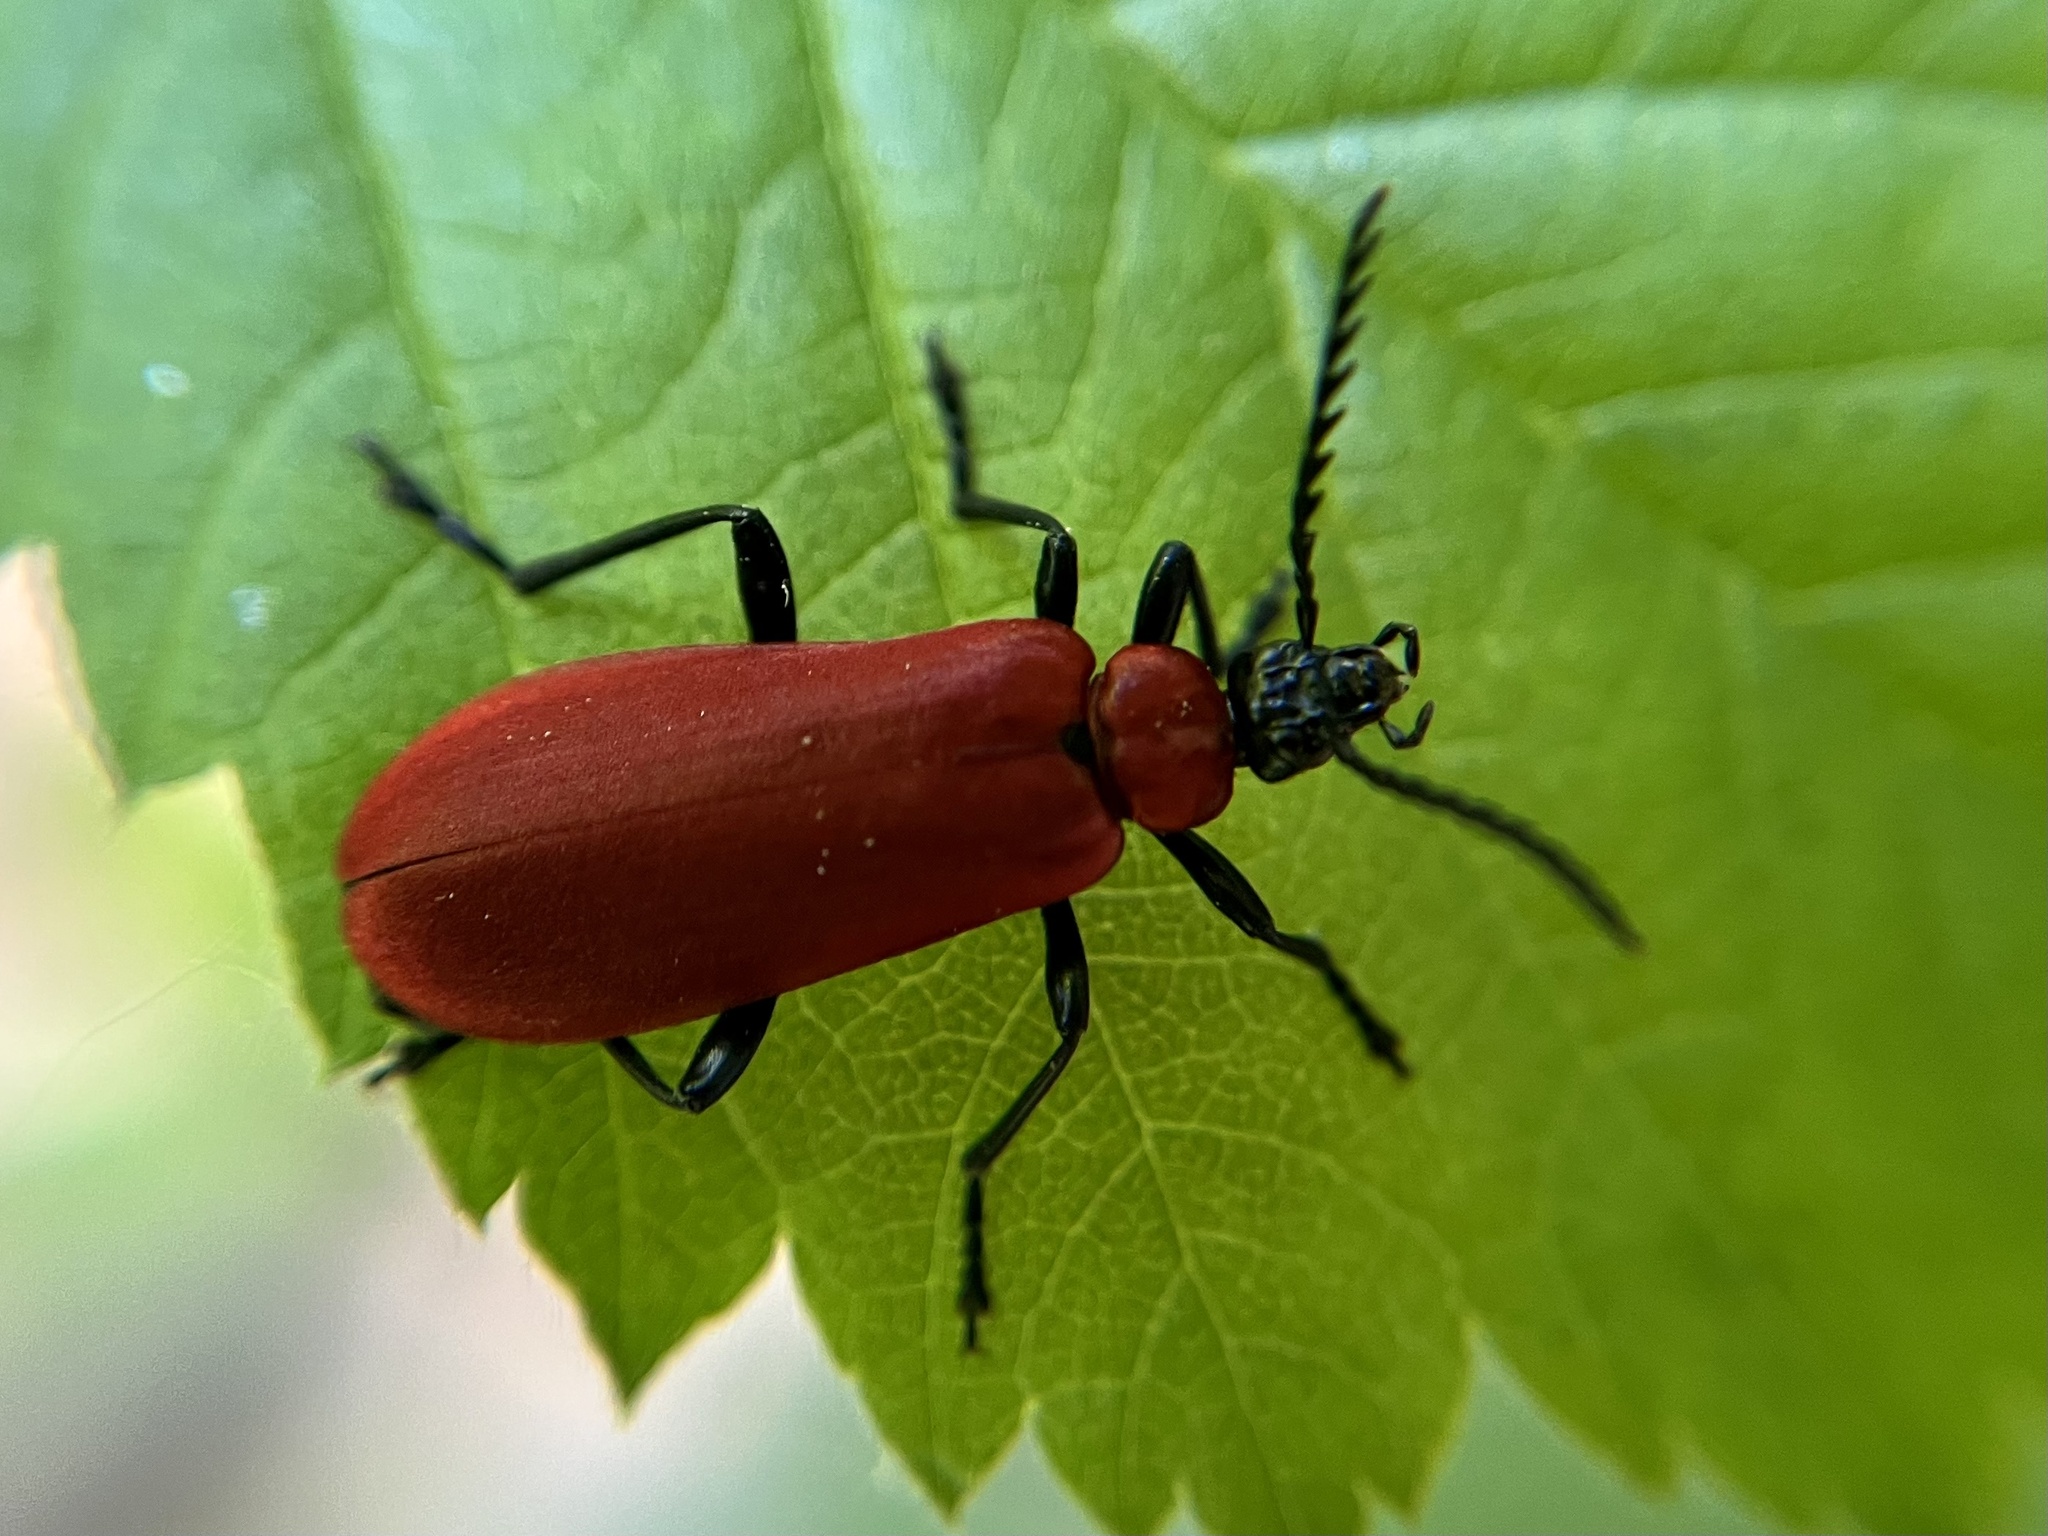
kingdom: Animalia
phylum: Arthropoda
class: Insecta
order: Coleoptera
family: Pyrochroidae
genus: Pyrochroa
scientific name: Pyrochroa coccinea
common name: Black-headed cardinal beetle
